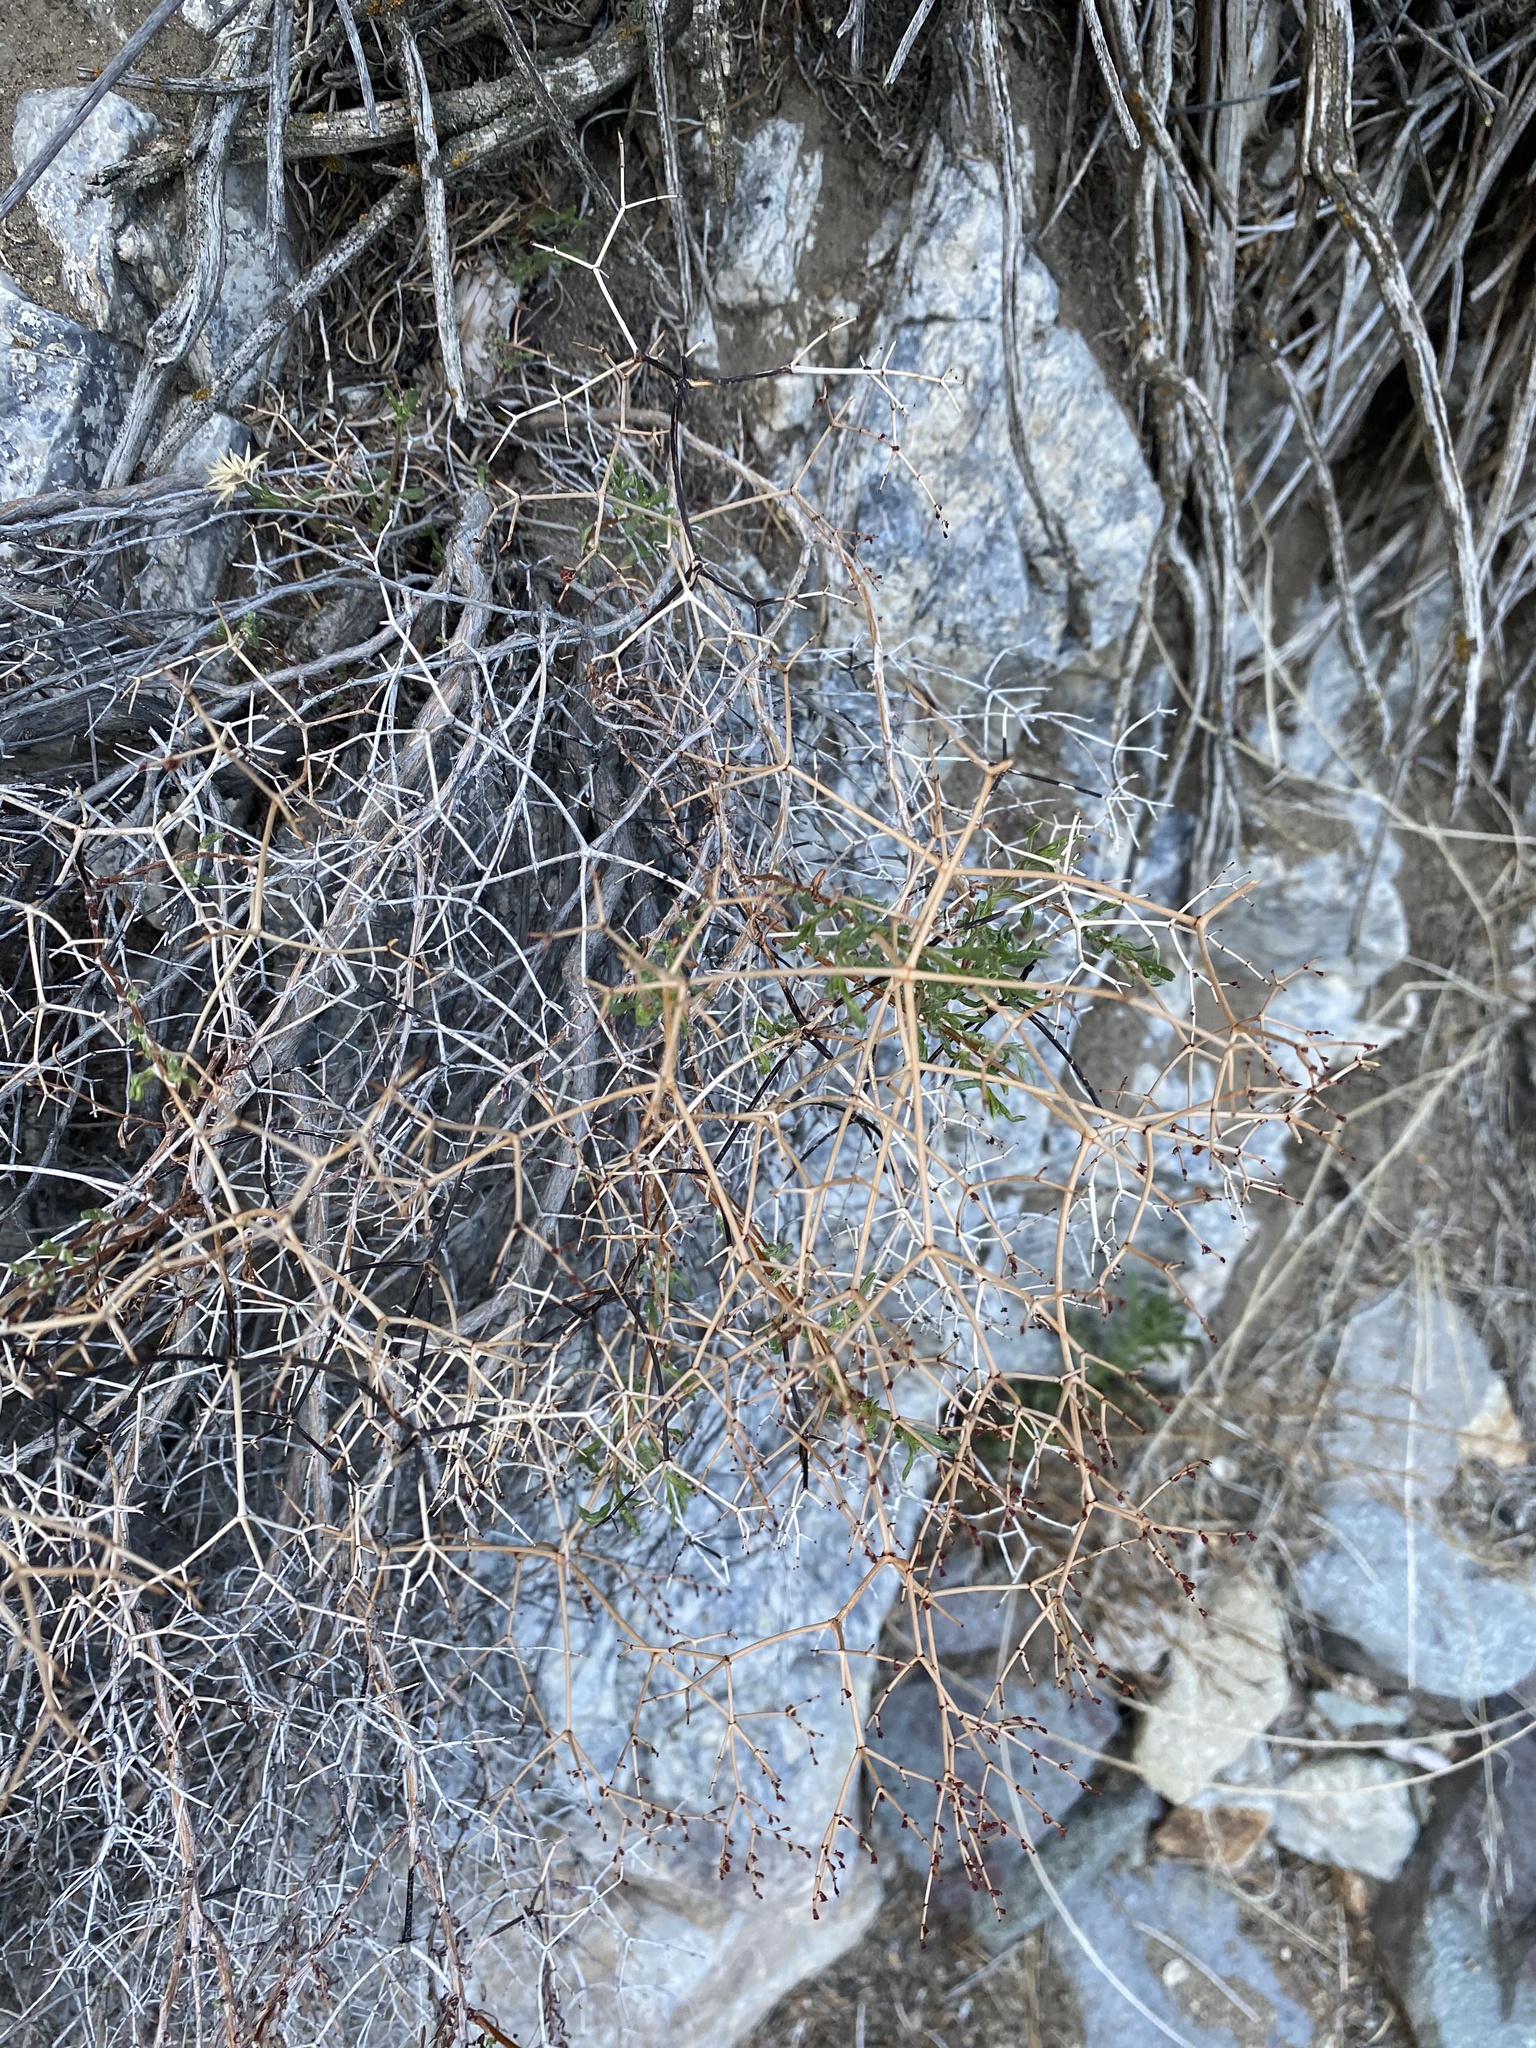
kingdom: Plantae
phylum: Tracheophyta
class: Magnoliopsida
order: Caryophyllales
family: Polygonaceae
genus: Eriogonum
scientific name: Eriogonum heermannii
